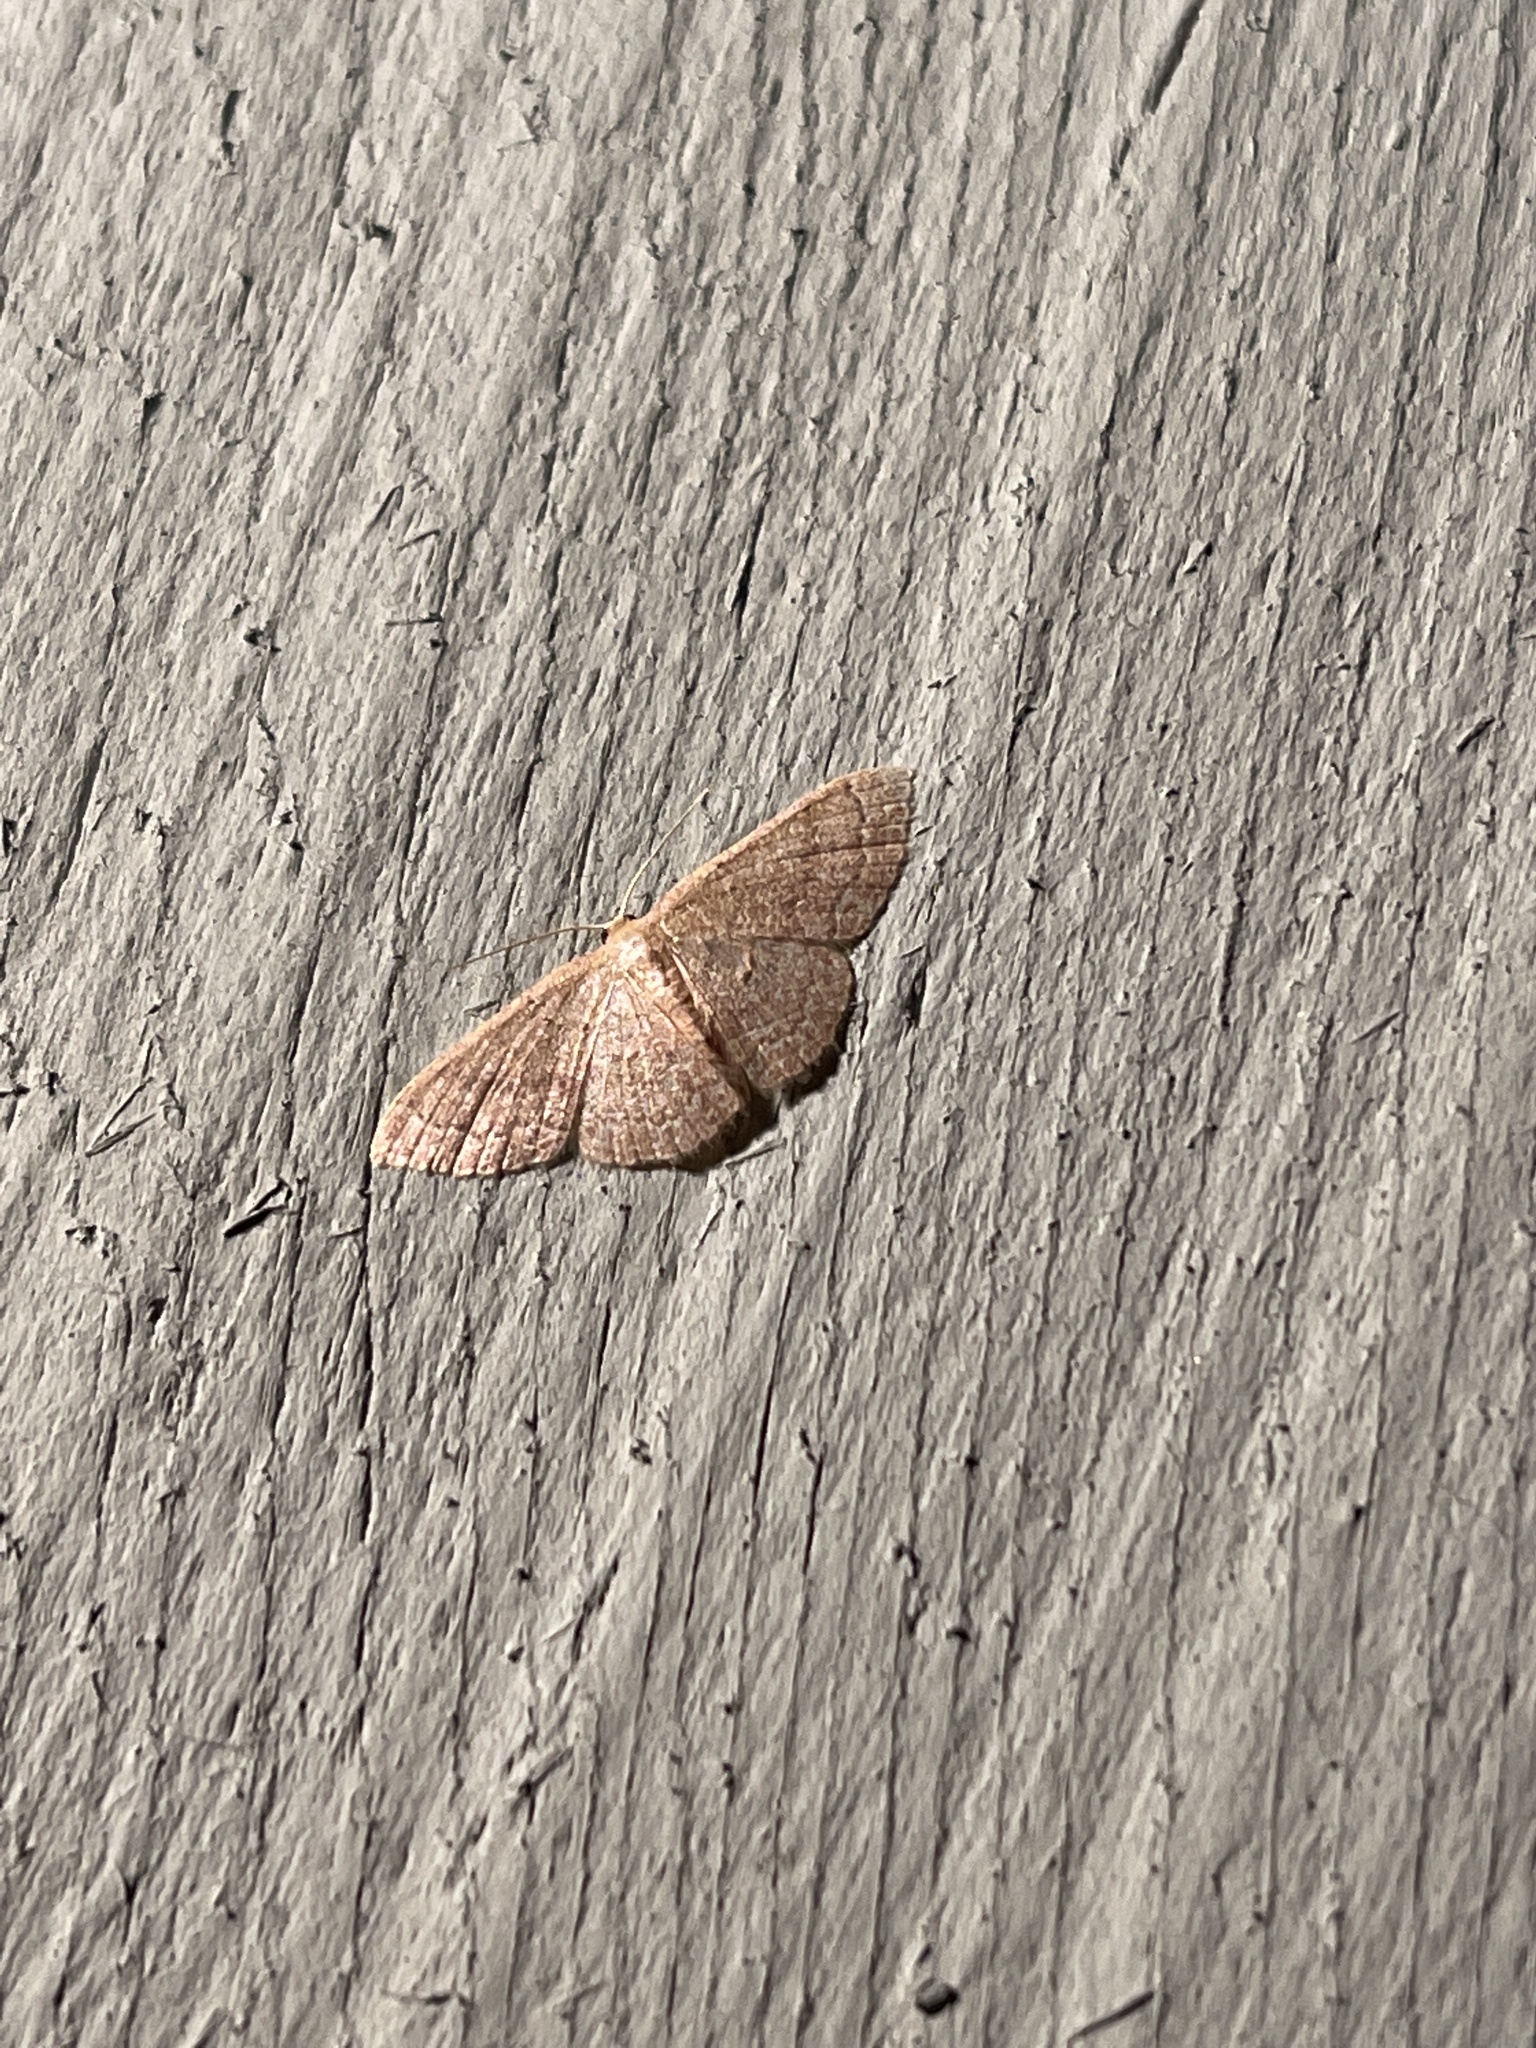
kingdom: Animalia
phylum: Arthropoda
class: Insecta
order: Lepidoptera
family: Geometridae
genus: Pleuroprucha
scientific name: Pleuroprucha insulsaria
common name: Common tan wave
